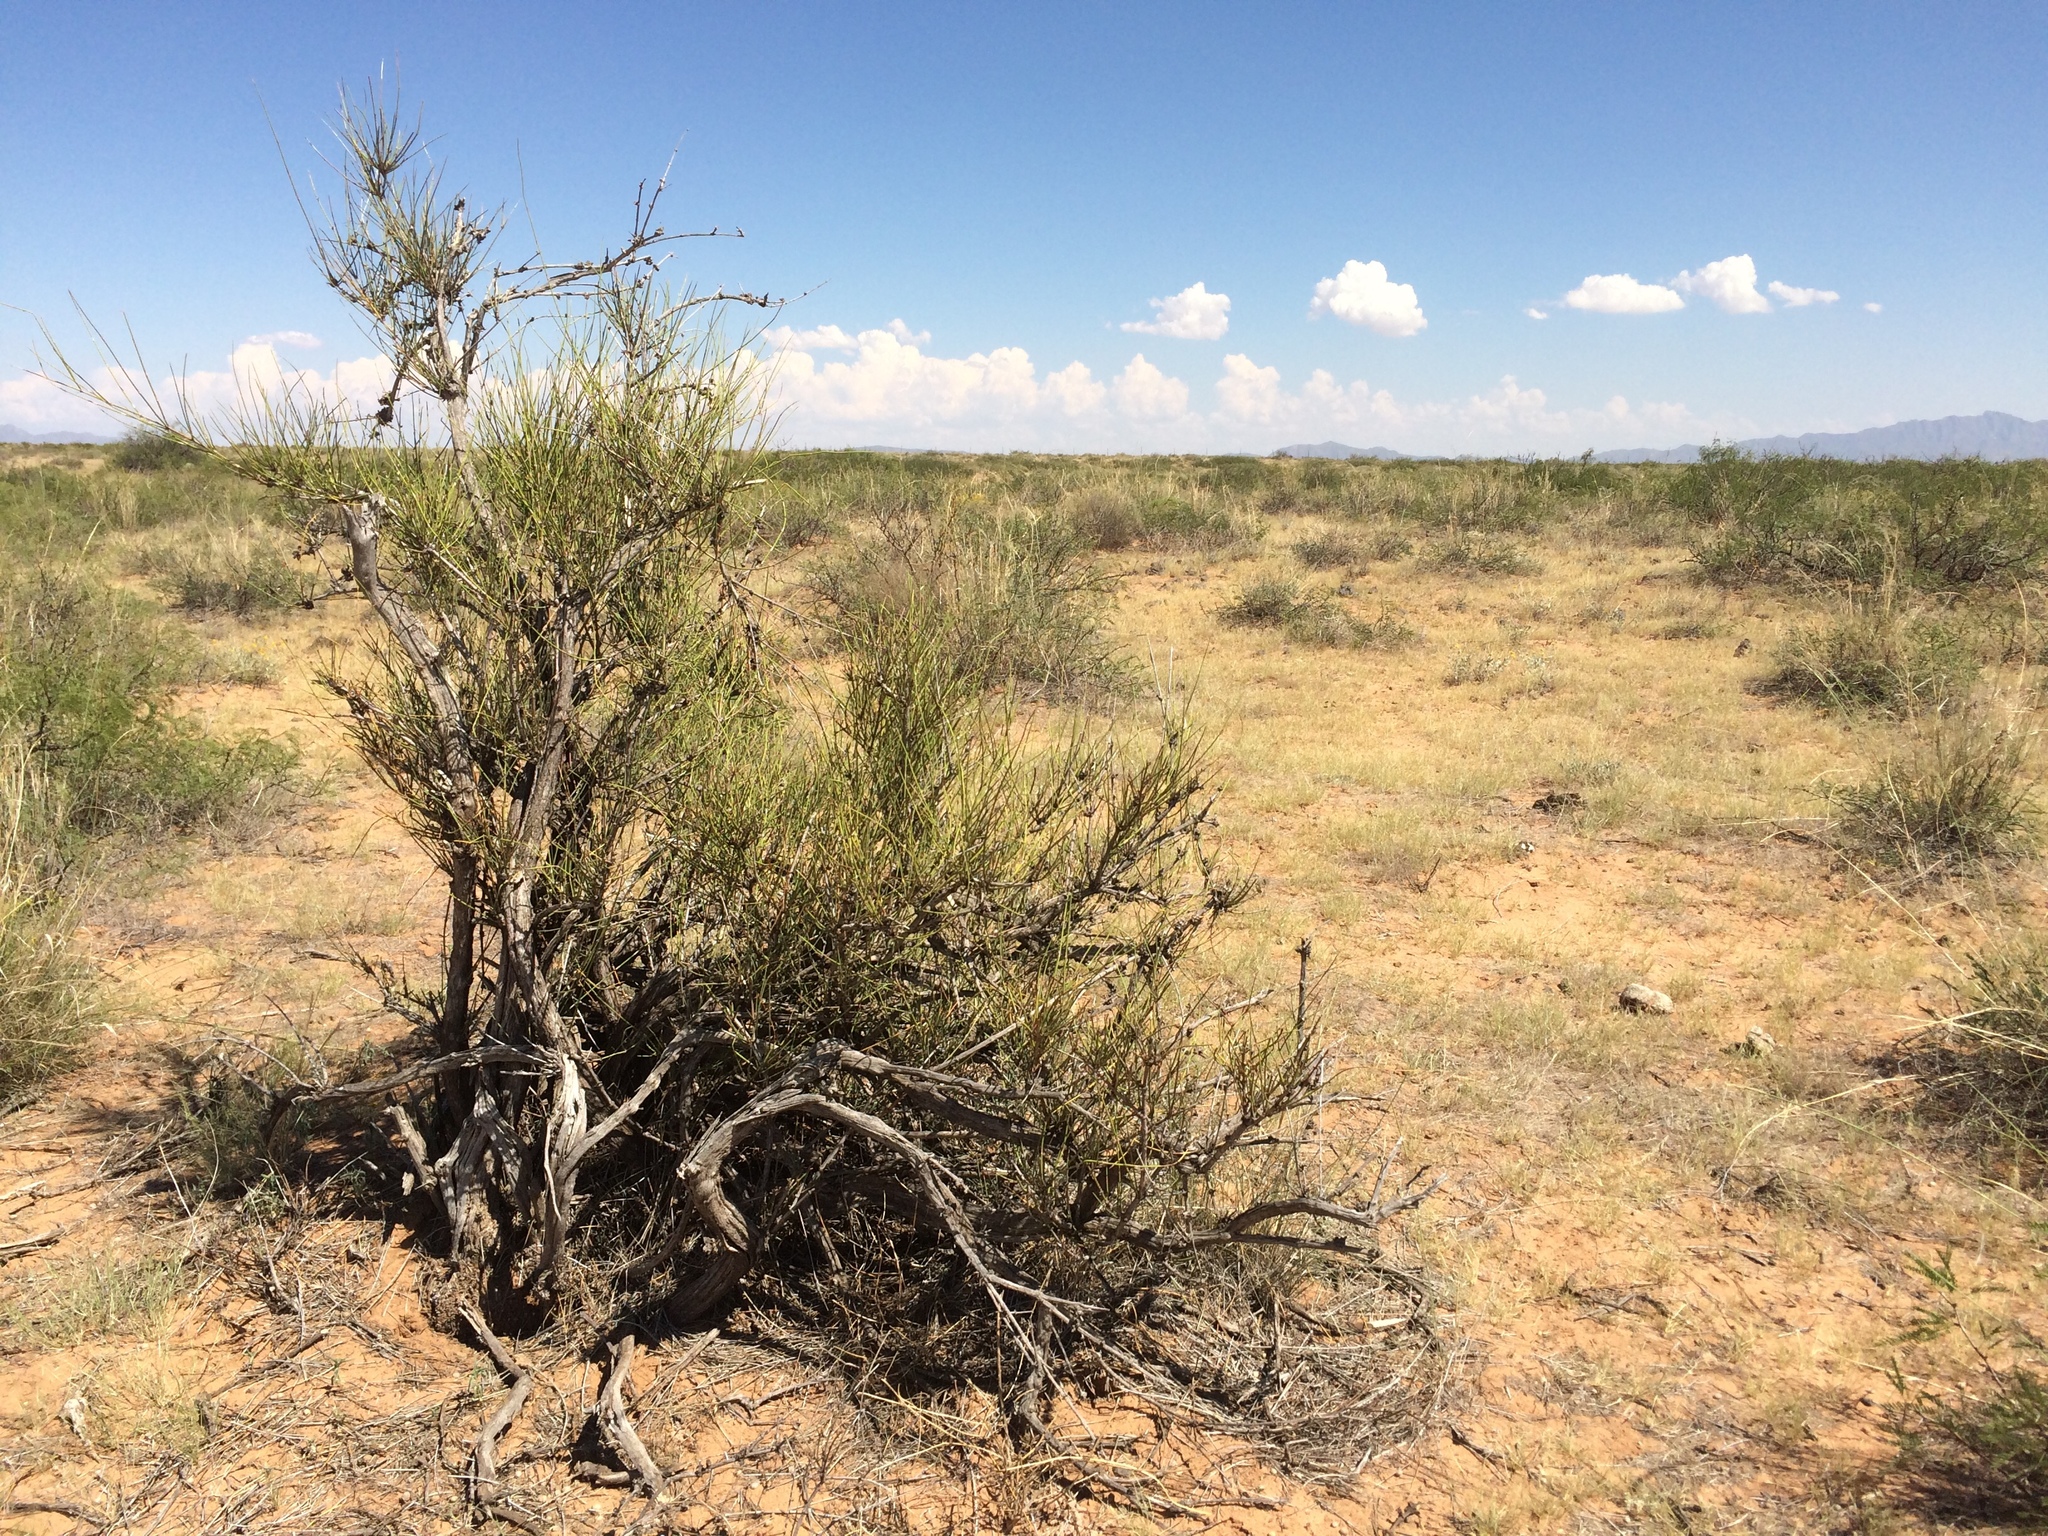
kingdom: Plantae
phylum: Tracheophyta
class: Gnetopsida
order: Ephedrales
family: Ephedraceae
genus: Ephedra
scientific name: Ephedra trifurca
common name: Mexican-tea
